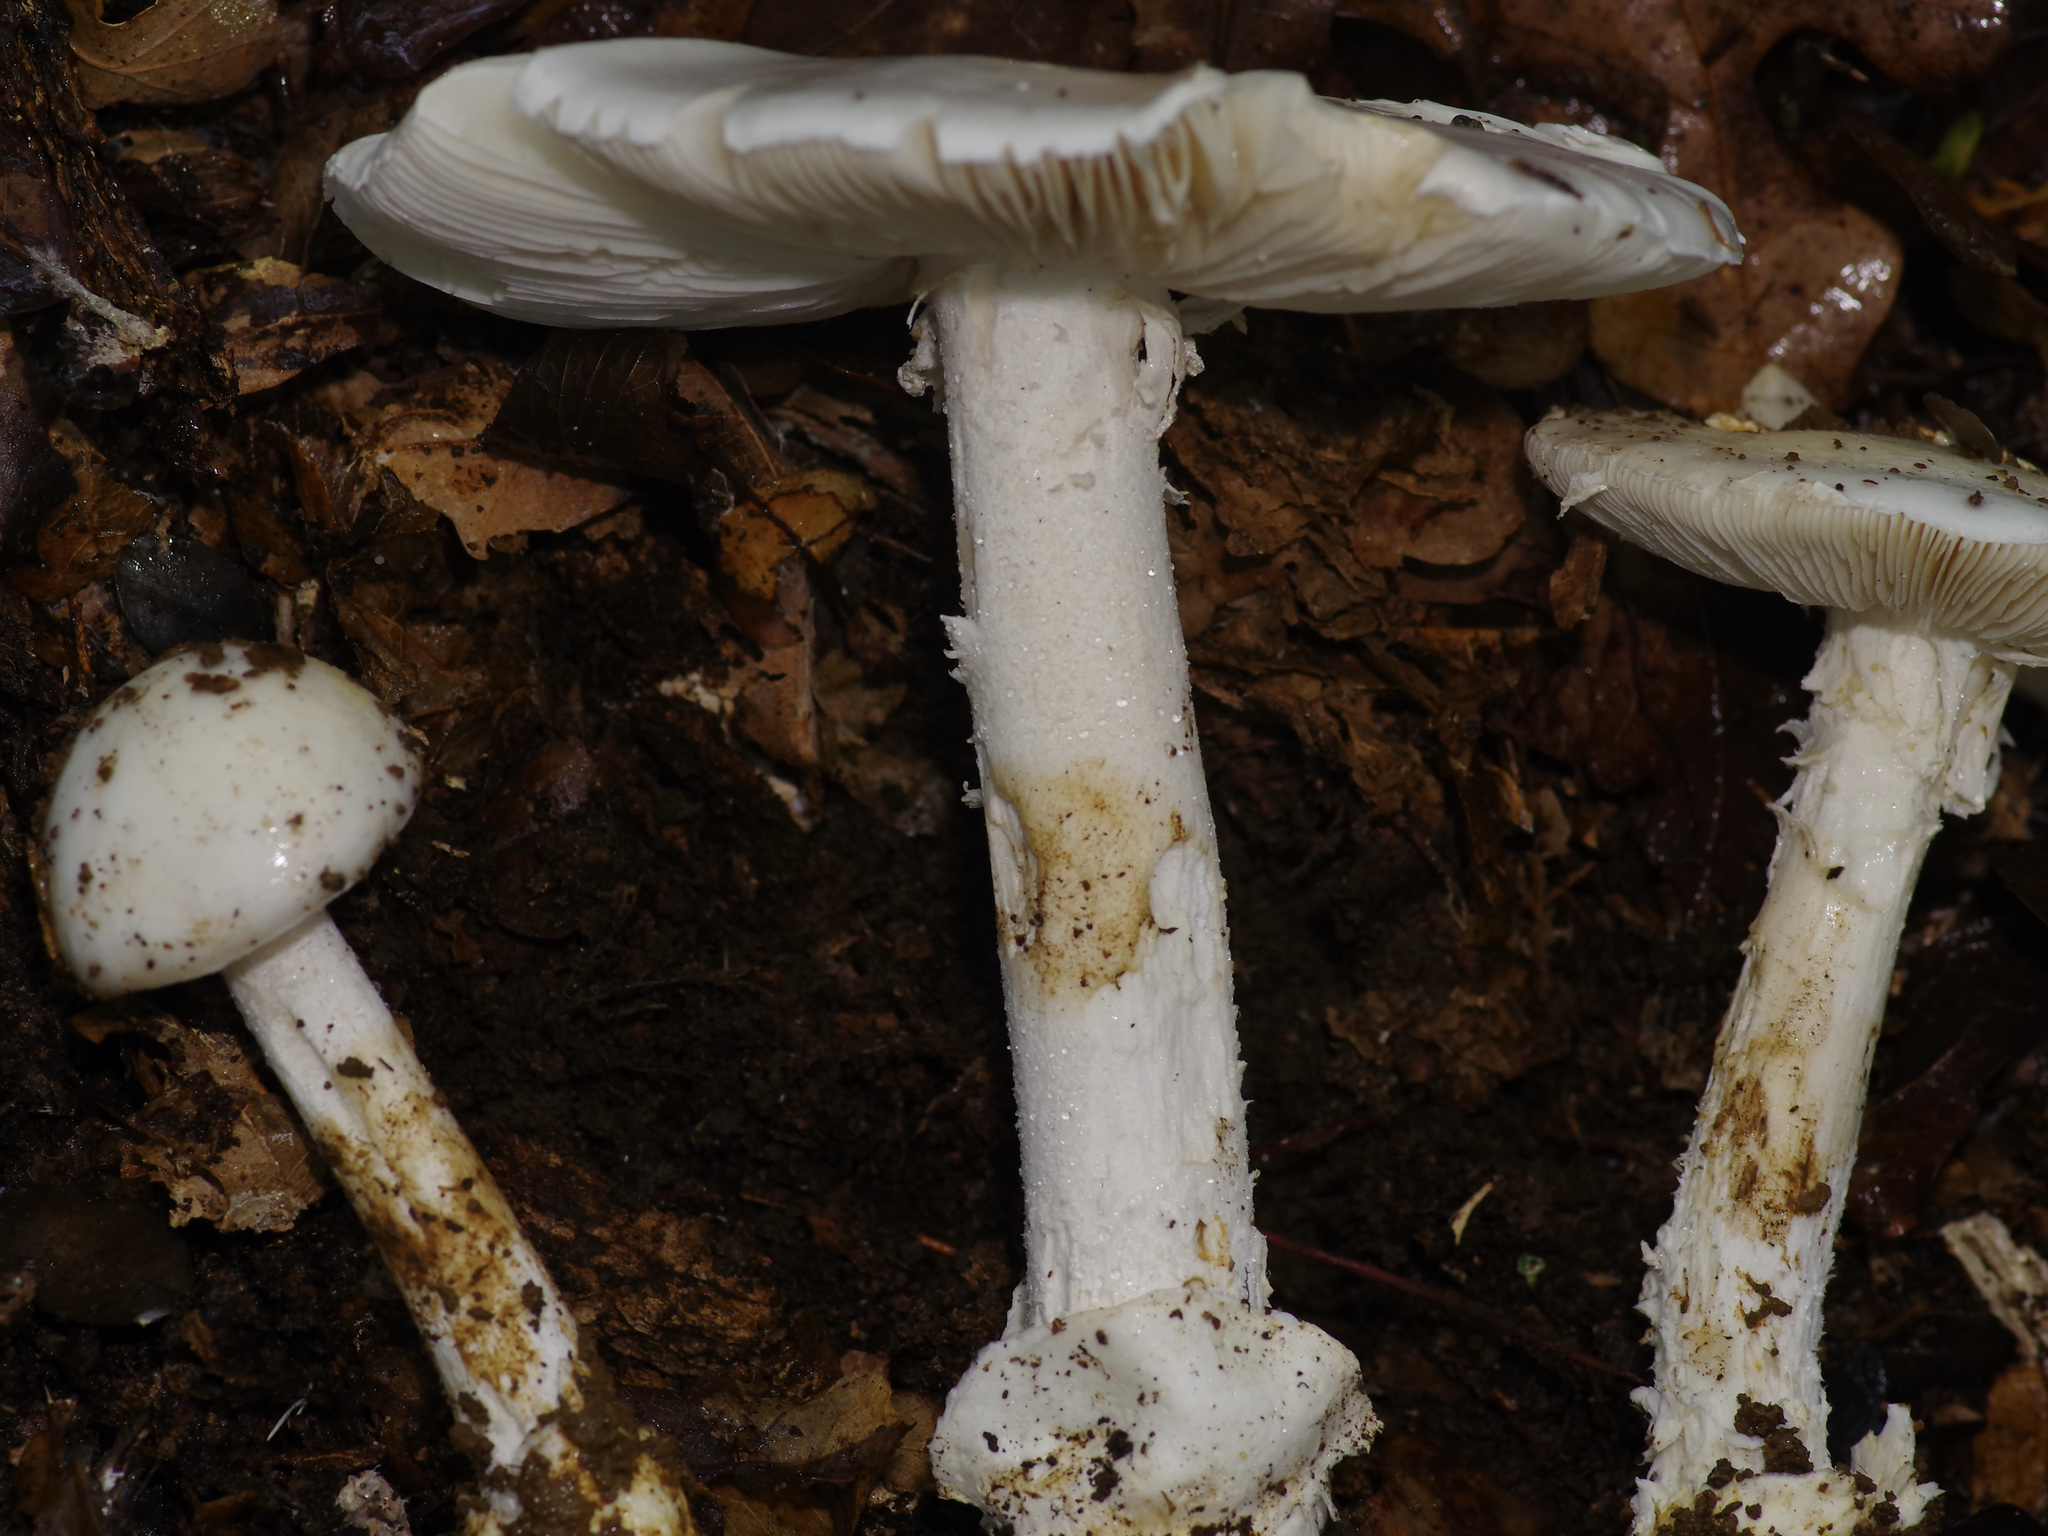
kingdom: Fungi
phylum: Basidiomycota
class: Agaricomycetes
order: Agaricales
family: Amanitaceae
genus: Amanita
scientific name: Amanita elliptosperma
